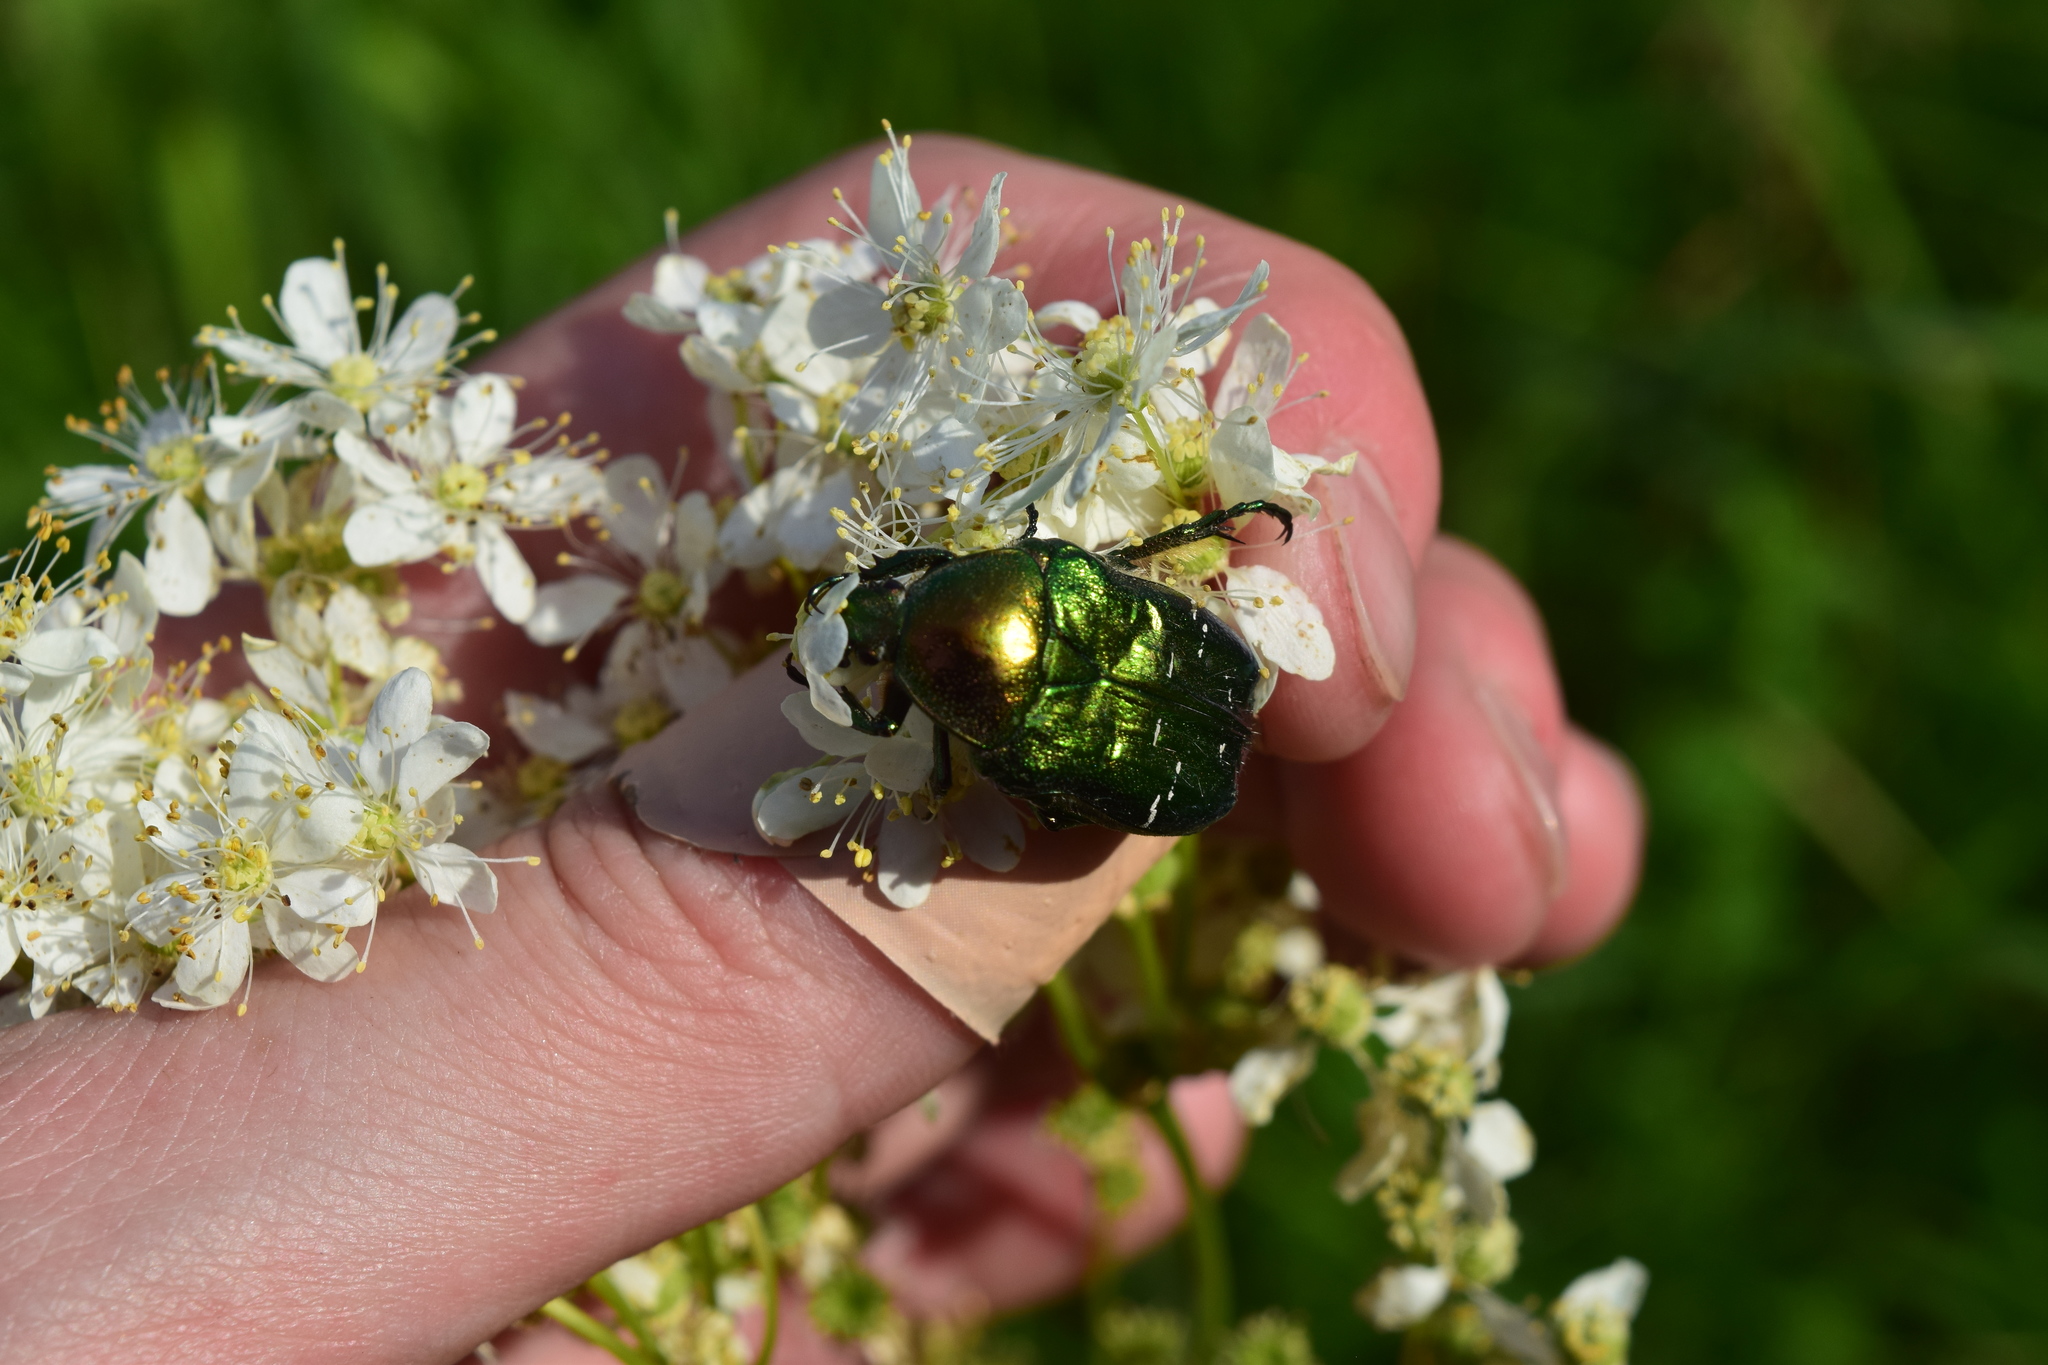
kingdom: Animalia
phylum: Arthropoda
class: Insecta
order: Coleoptera
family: Scarabaeidae
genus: Cetonia
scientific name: Cetonia aurata
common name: Rose chafer
